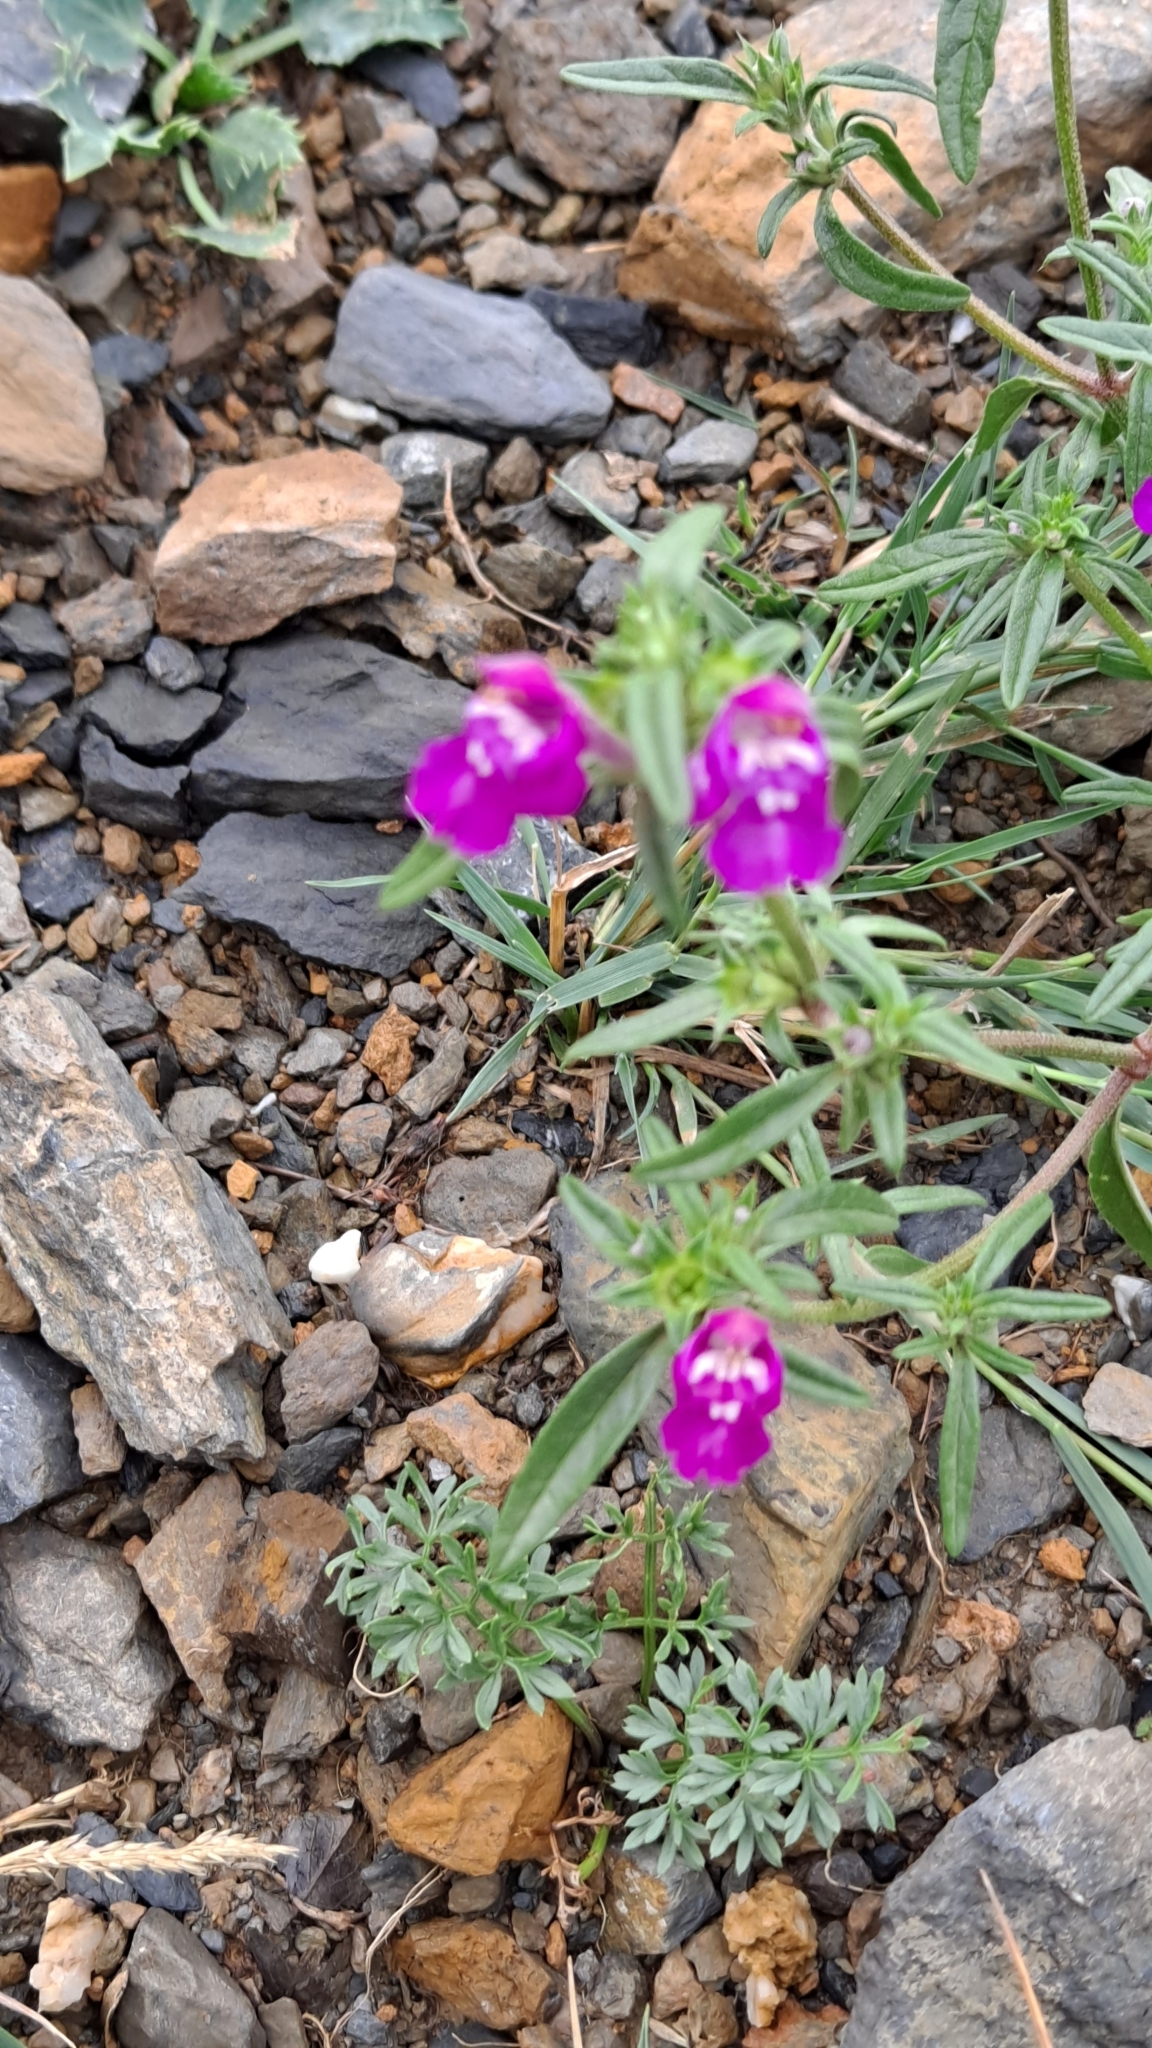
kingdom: Plantae
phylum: Tracheophyta
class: Magnoliopsida
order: Lamiales
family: Lamiaceae
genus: Galeopsis
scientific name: Galeopsis angustifolia
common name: Red hemp-nettle
